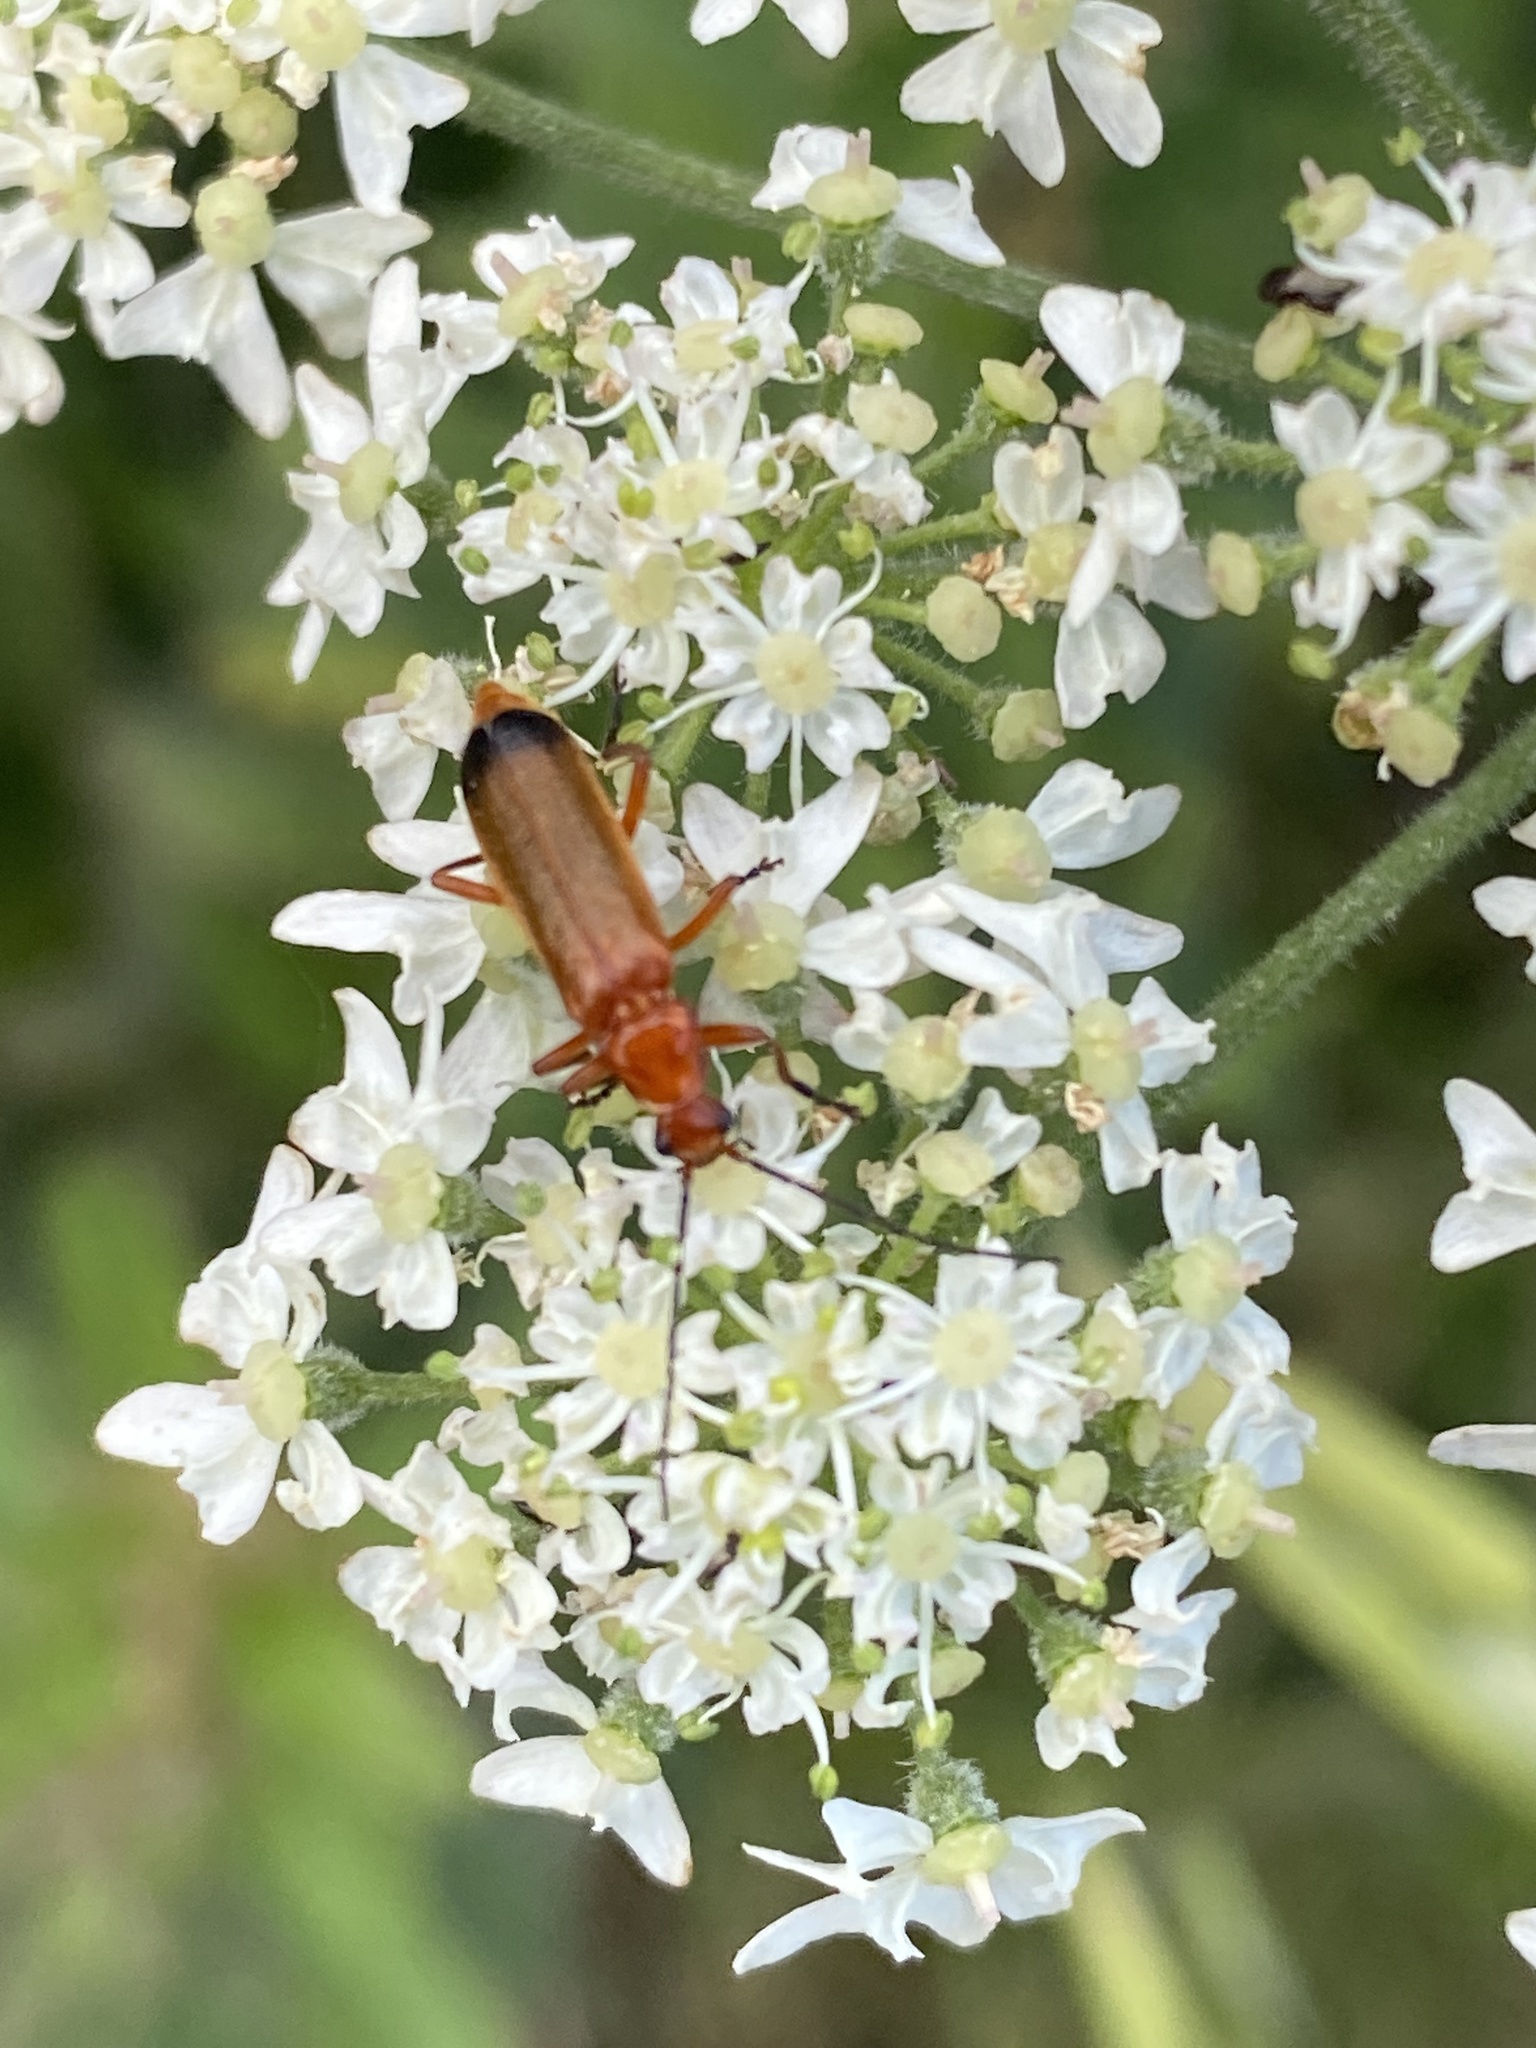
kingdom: Animalia
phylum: Arthropoda
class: Insecta
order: Coleoptera
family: Cantharidae
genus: Rhagonycha
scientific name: Rhagonycha fulva
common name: Common red soldier beetle
